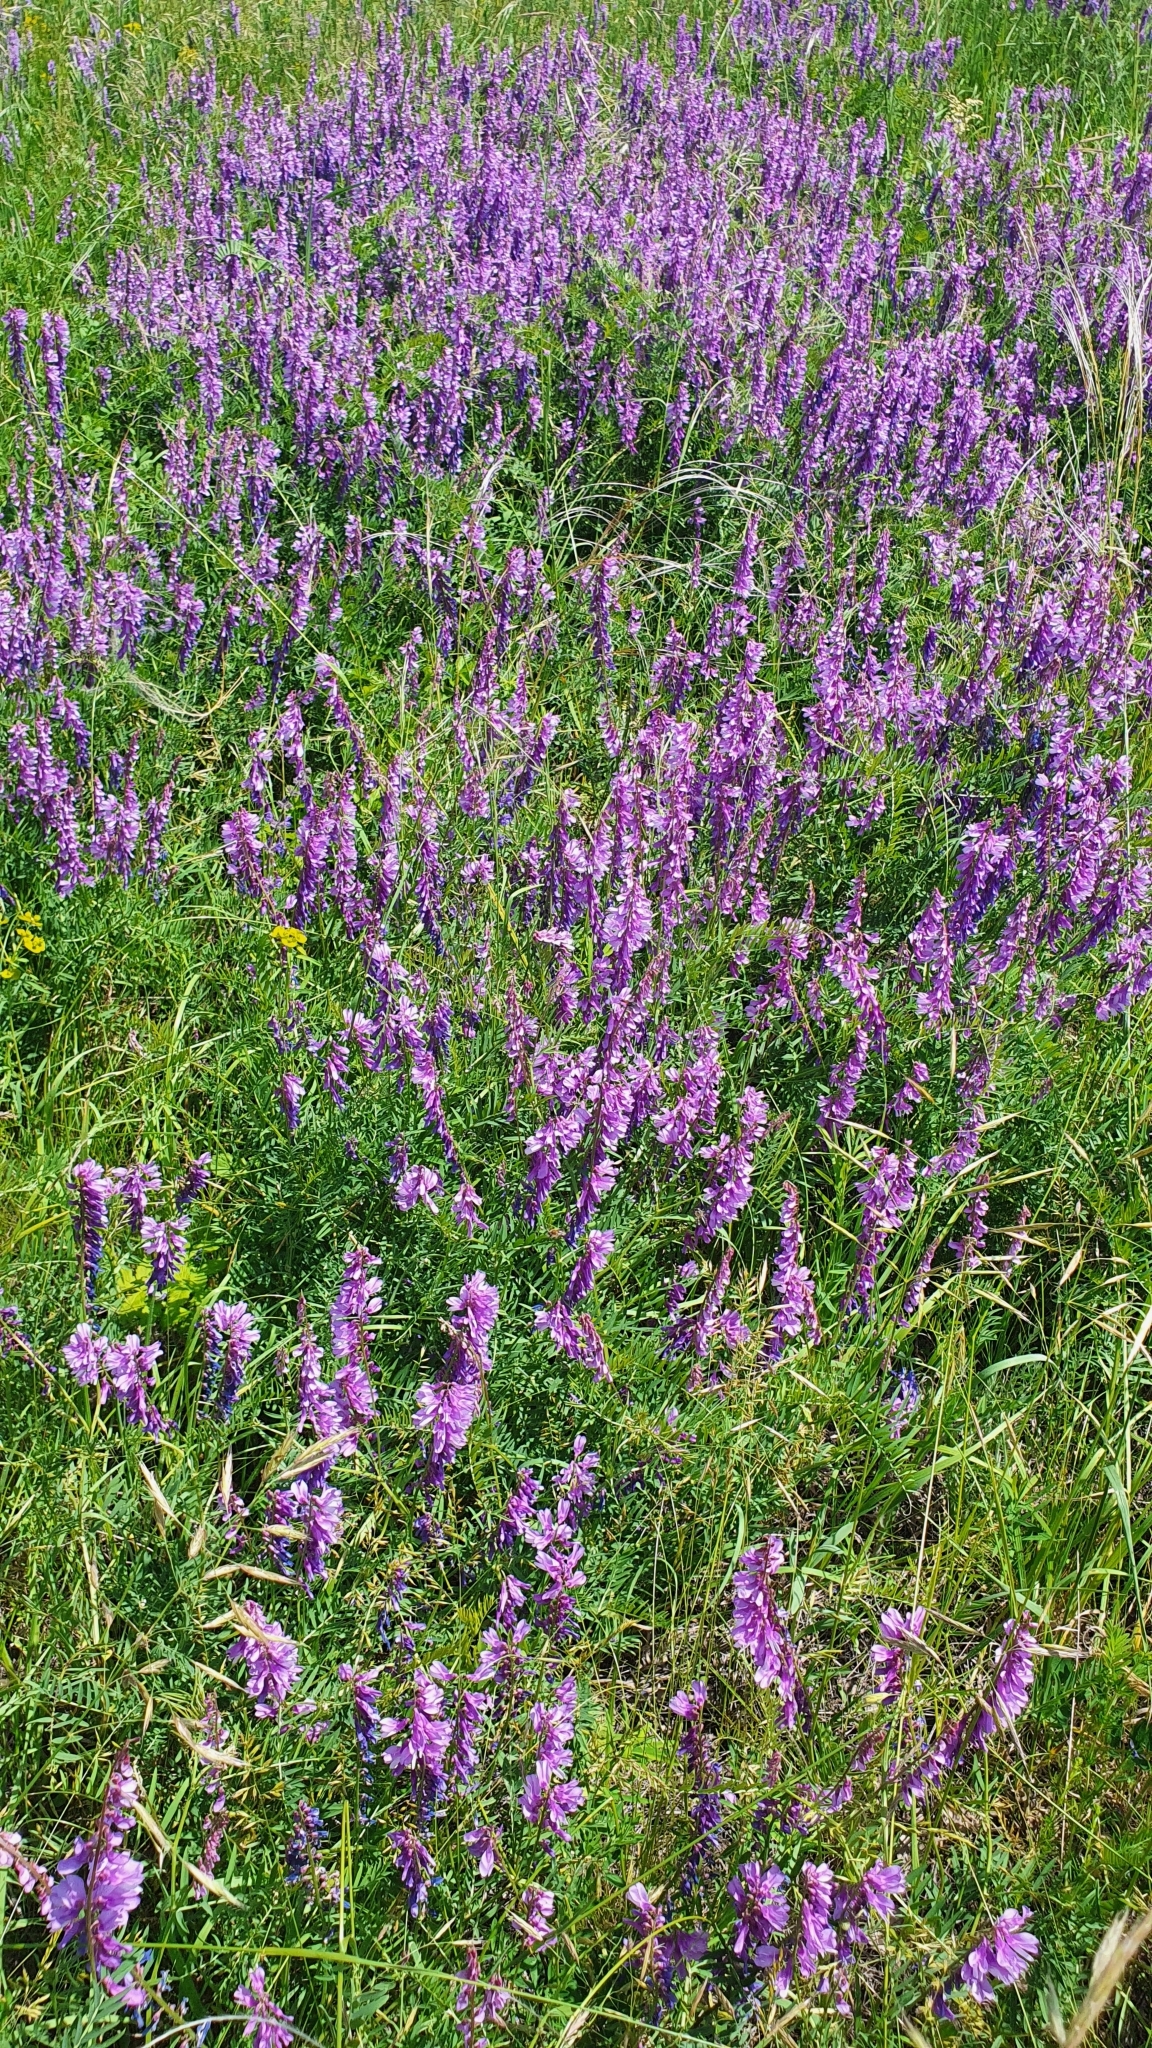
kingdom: Plantae
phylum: Tracheophyta
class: Magnoliopsida
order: Fabales
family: Fabaceae
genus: Vicia
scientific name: Vicia tenuifolia
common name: Fine-leaved vetch
